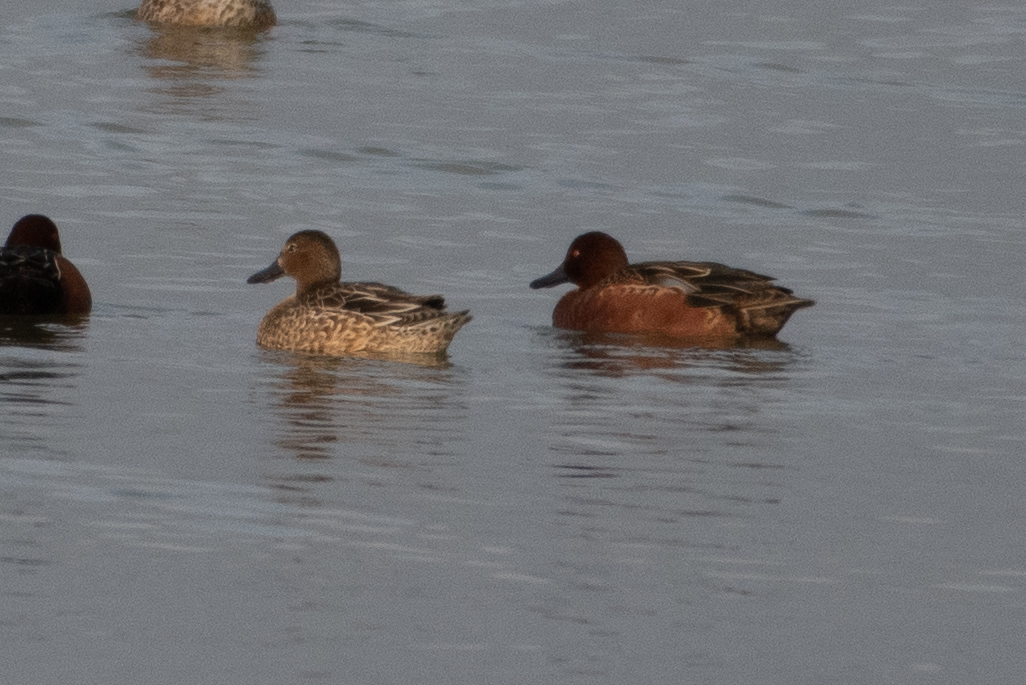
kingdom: Animalia
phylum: Chordata
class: Aves
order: Anseriformes
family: Anatidae
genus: Spatula
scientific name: Spatula cyanoptera
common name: Cinnamon teal
